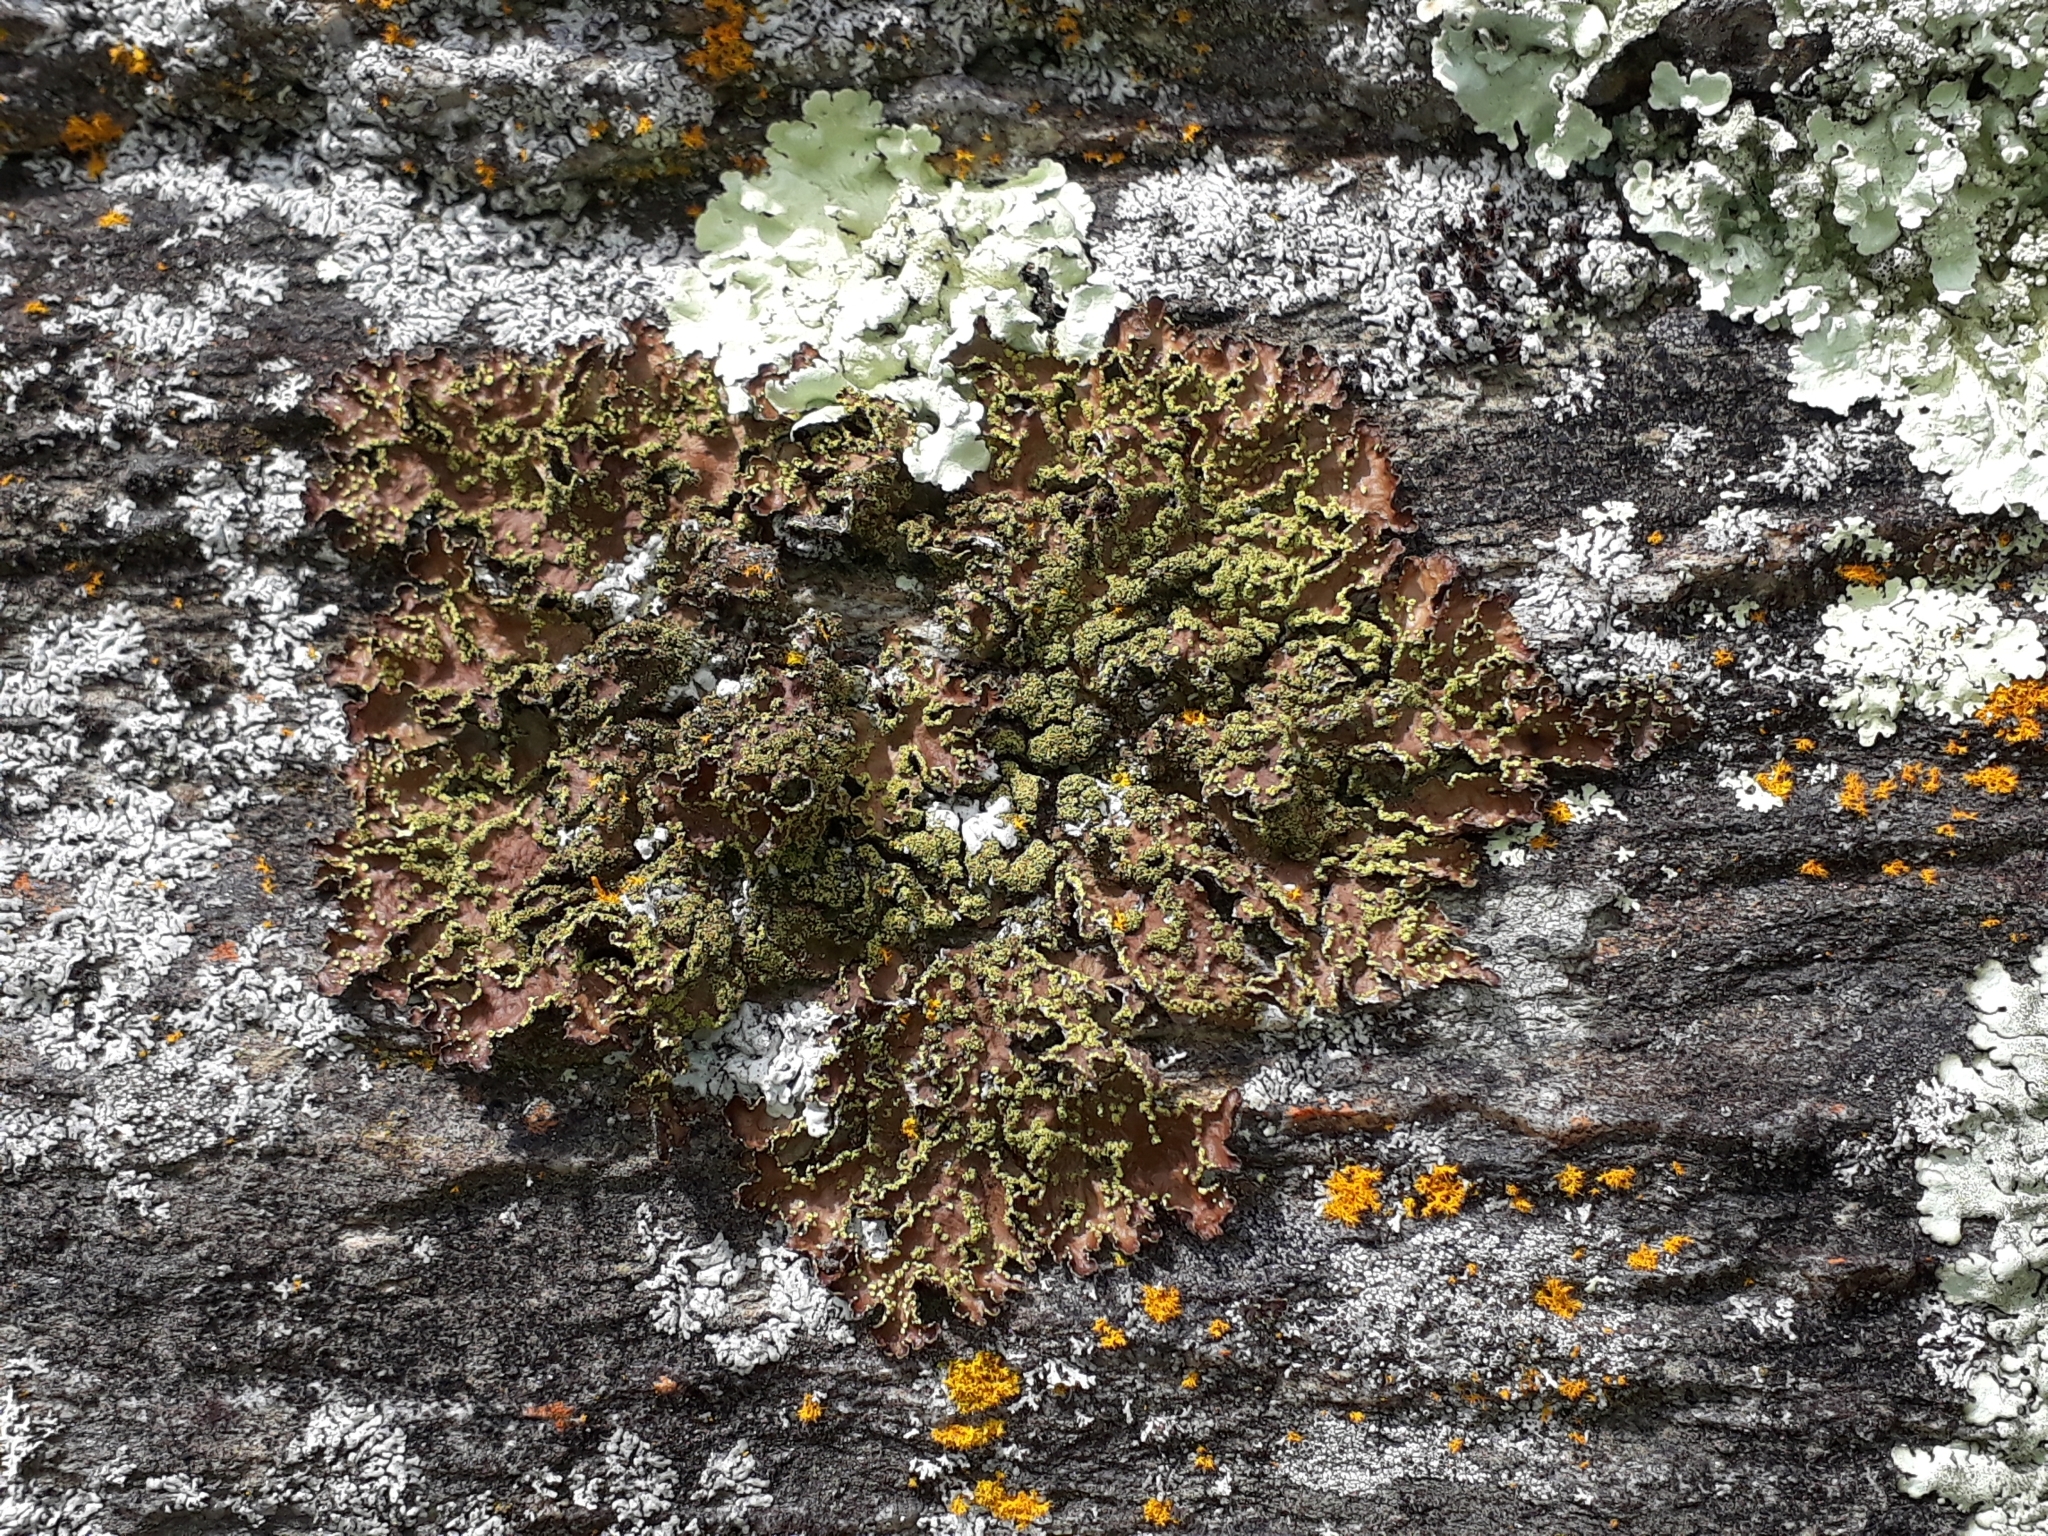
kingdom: Fungi
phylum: Ascomycota
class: Lecanoromycetes
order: Peltigerales
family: Lobariaceae
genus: Pseudocyphellaria
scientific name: Pseudocyphellaria crocata
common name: Golden specklebelly
